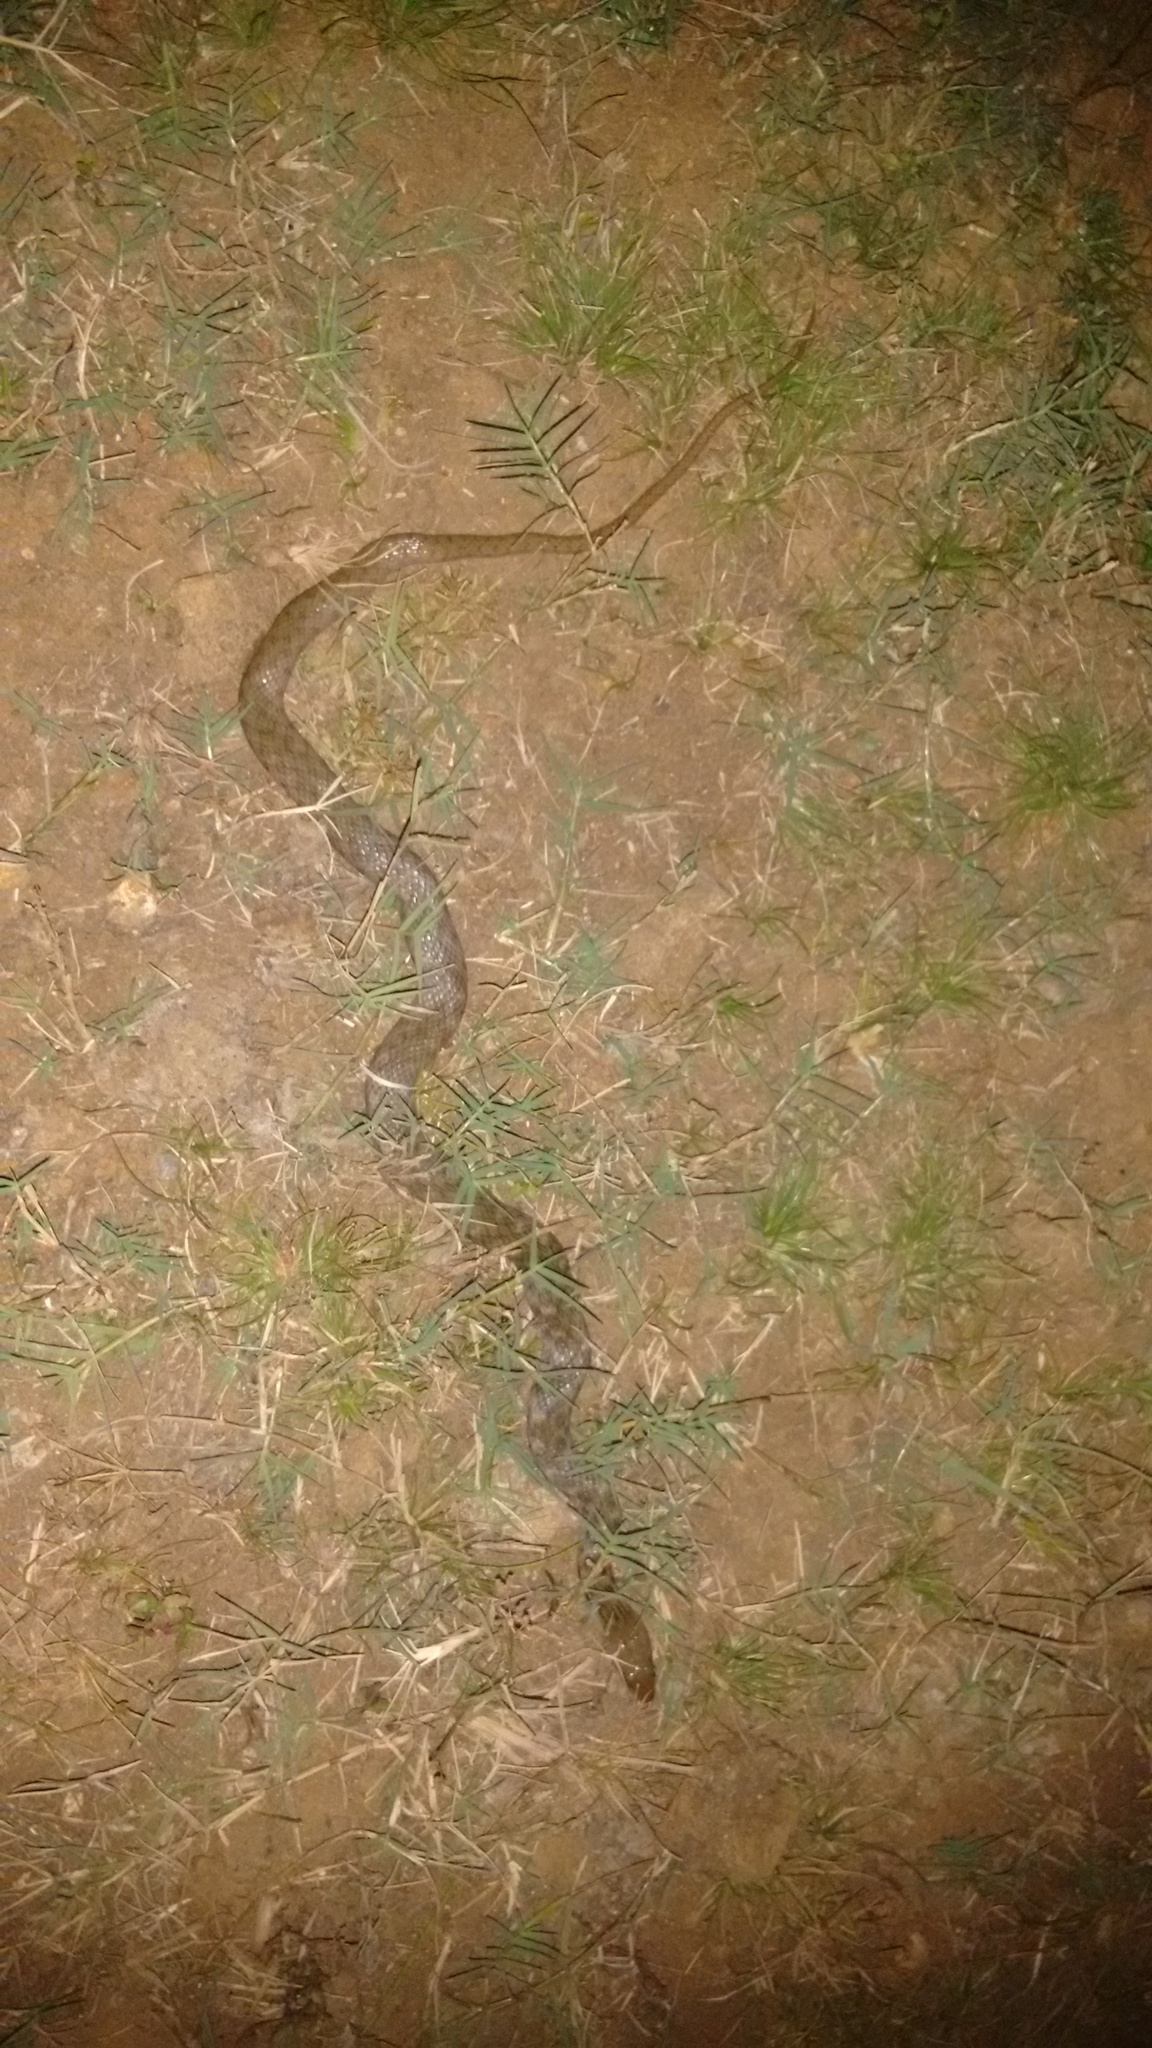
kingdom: Animalia
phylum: Chordata
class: Squamata
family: Colubridae
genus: Fowlea
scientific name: Fowlea piscator
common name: Asiatic water snake
